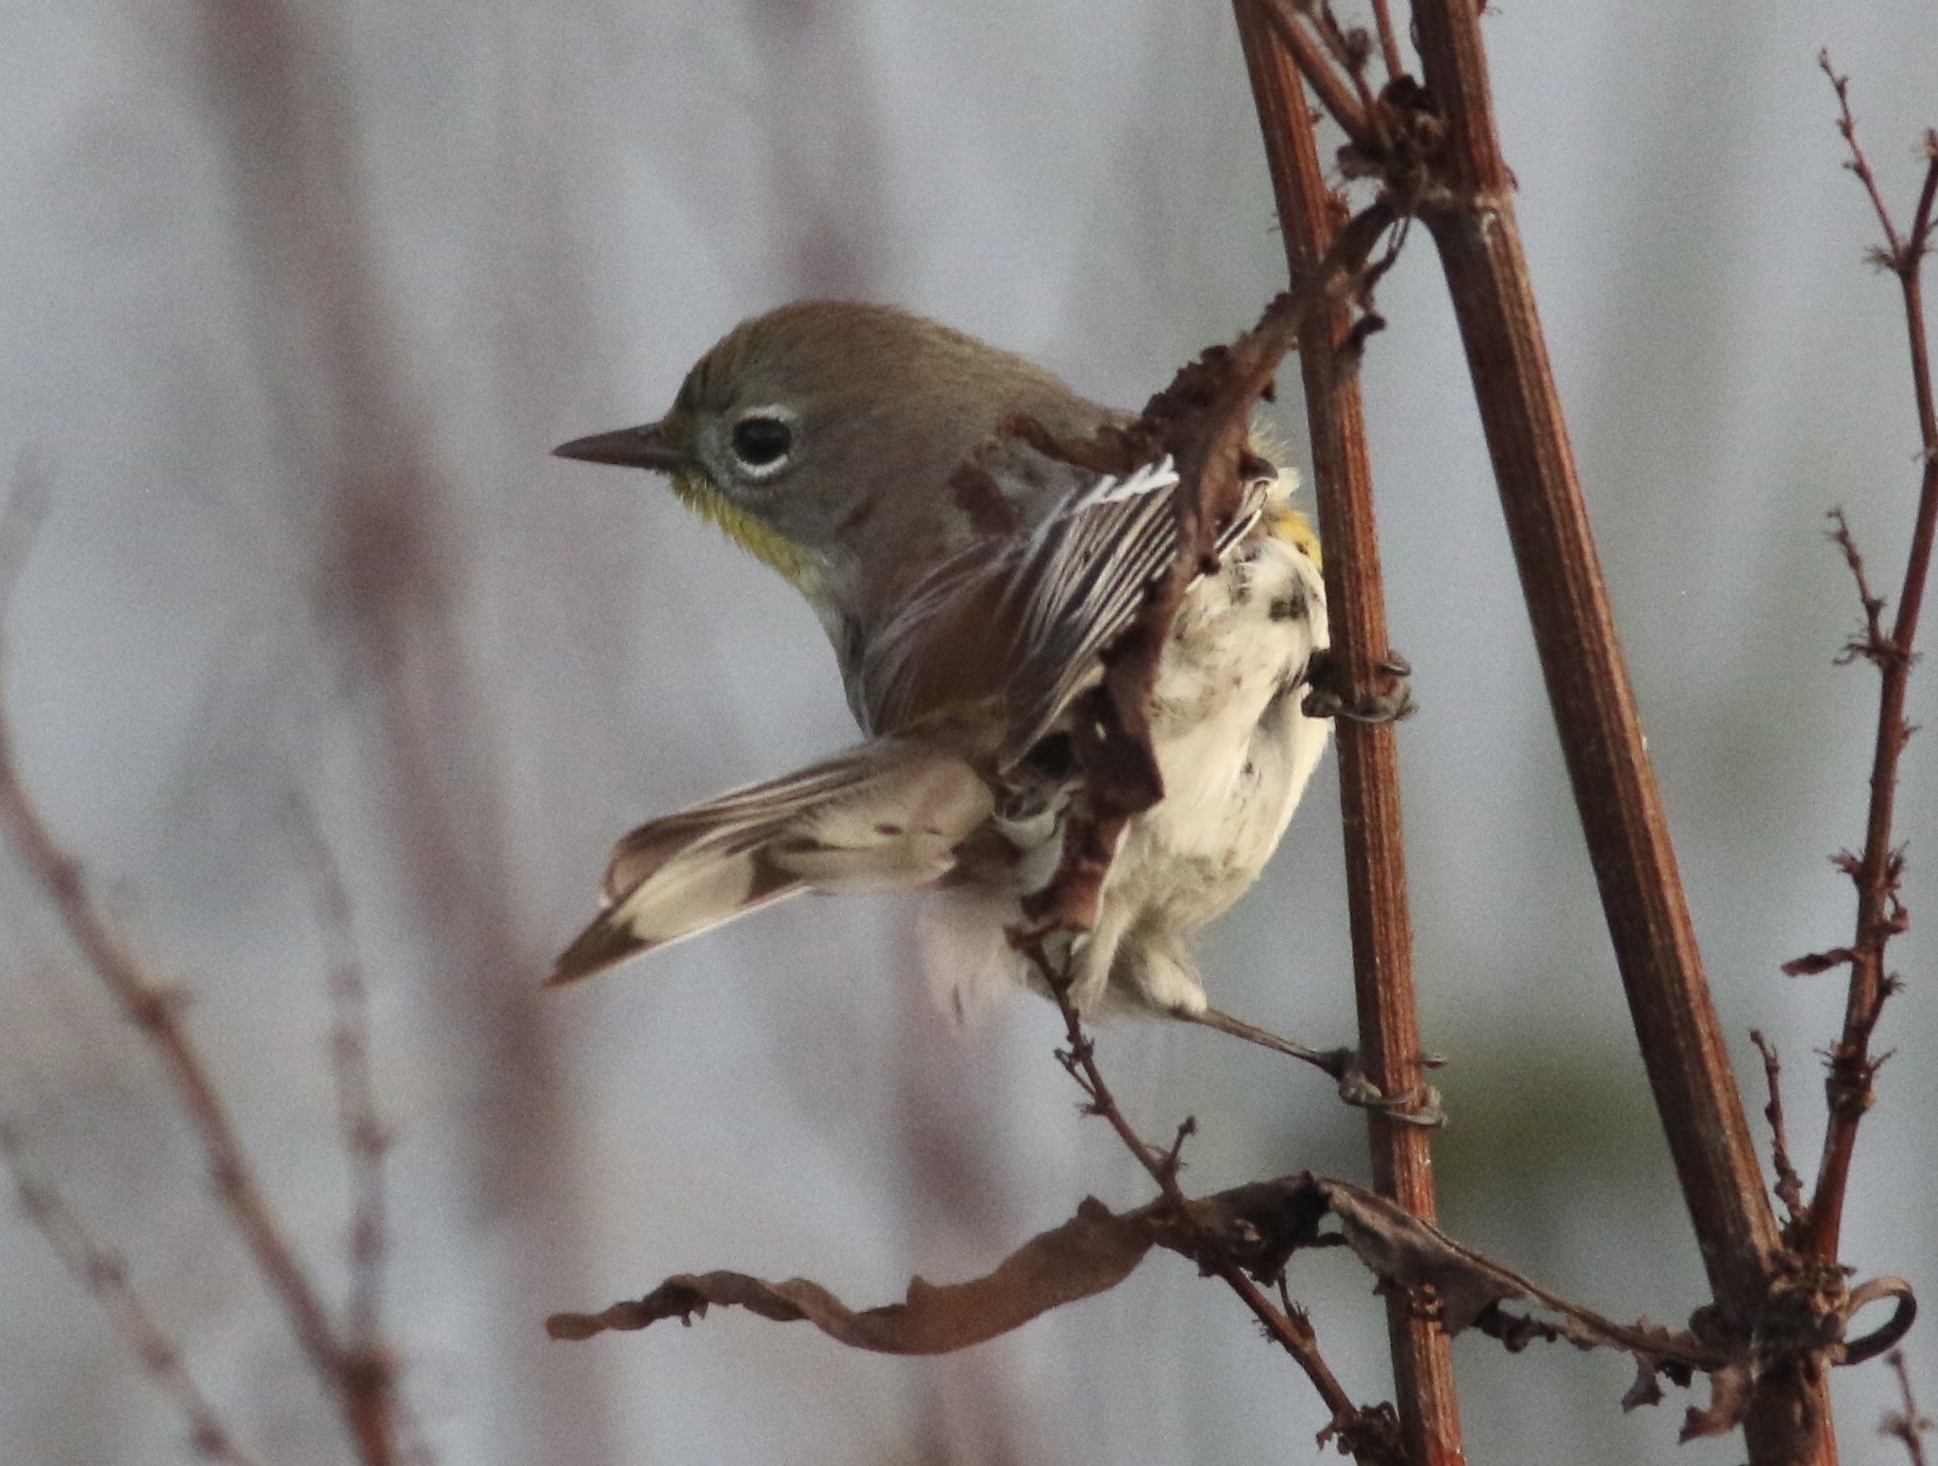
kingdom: Animalia
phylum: Chordata
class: Aves
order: Passeriformes
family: Parulidae
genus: Setophaga
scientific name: Setophaga coronata
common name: Myrtle warbler
